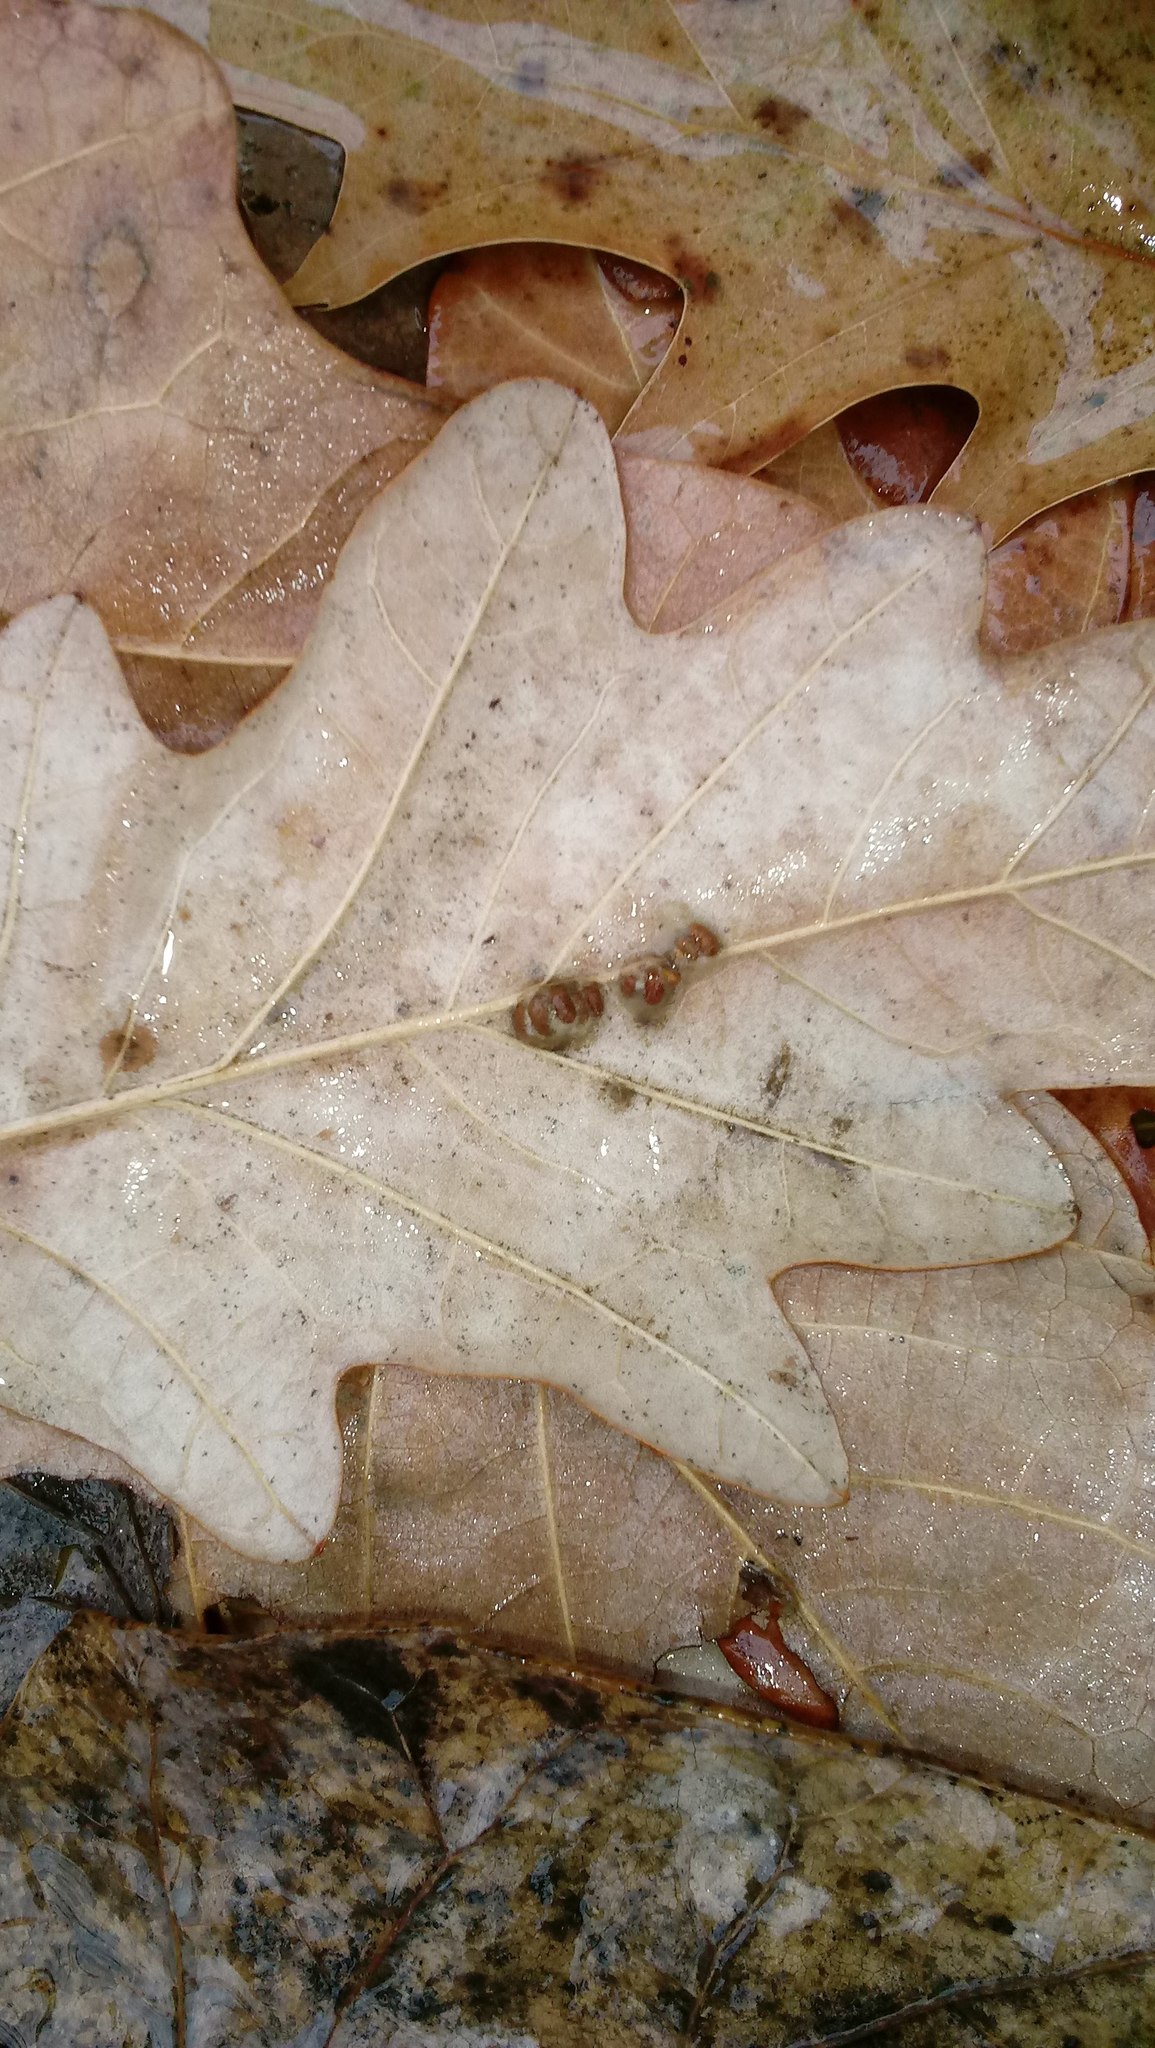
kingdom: Animalia
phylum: Arthropoda
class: Insecta
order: Hymenoptera
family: Cynipidae
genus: Andricus
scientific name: Andricus Druon ignotum
